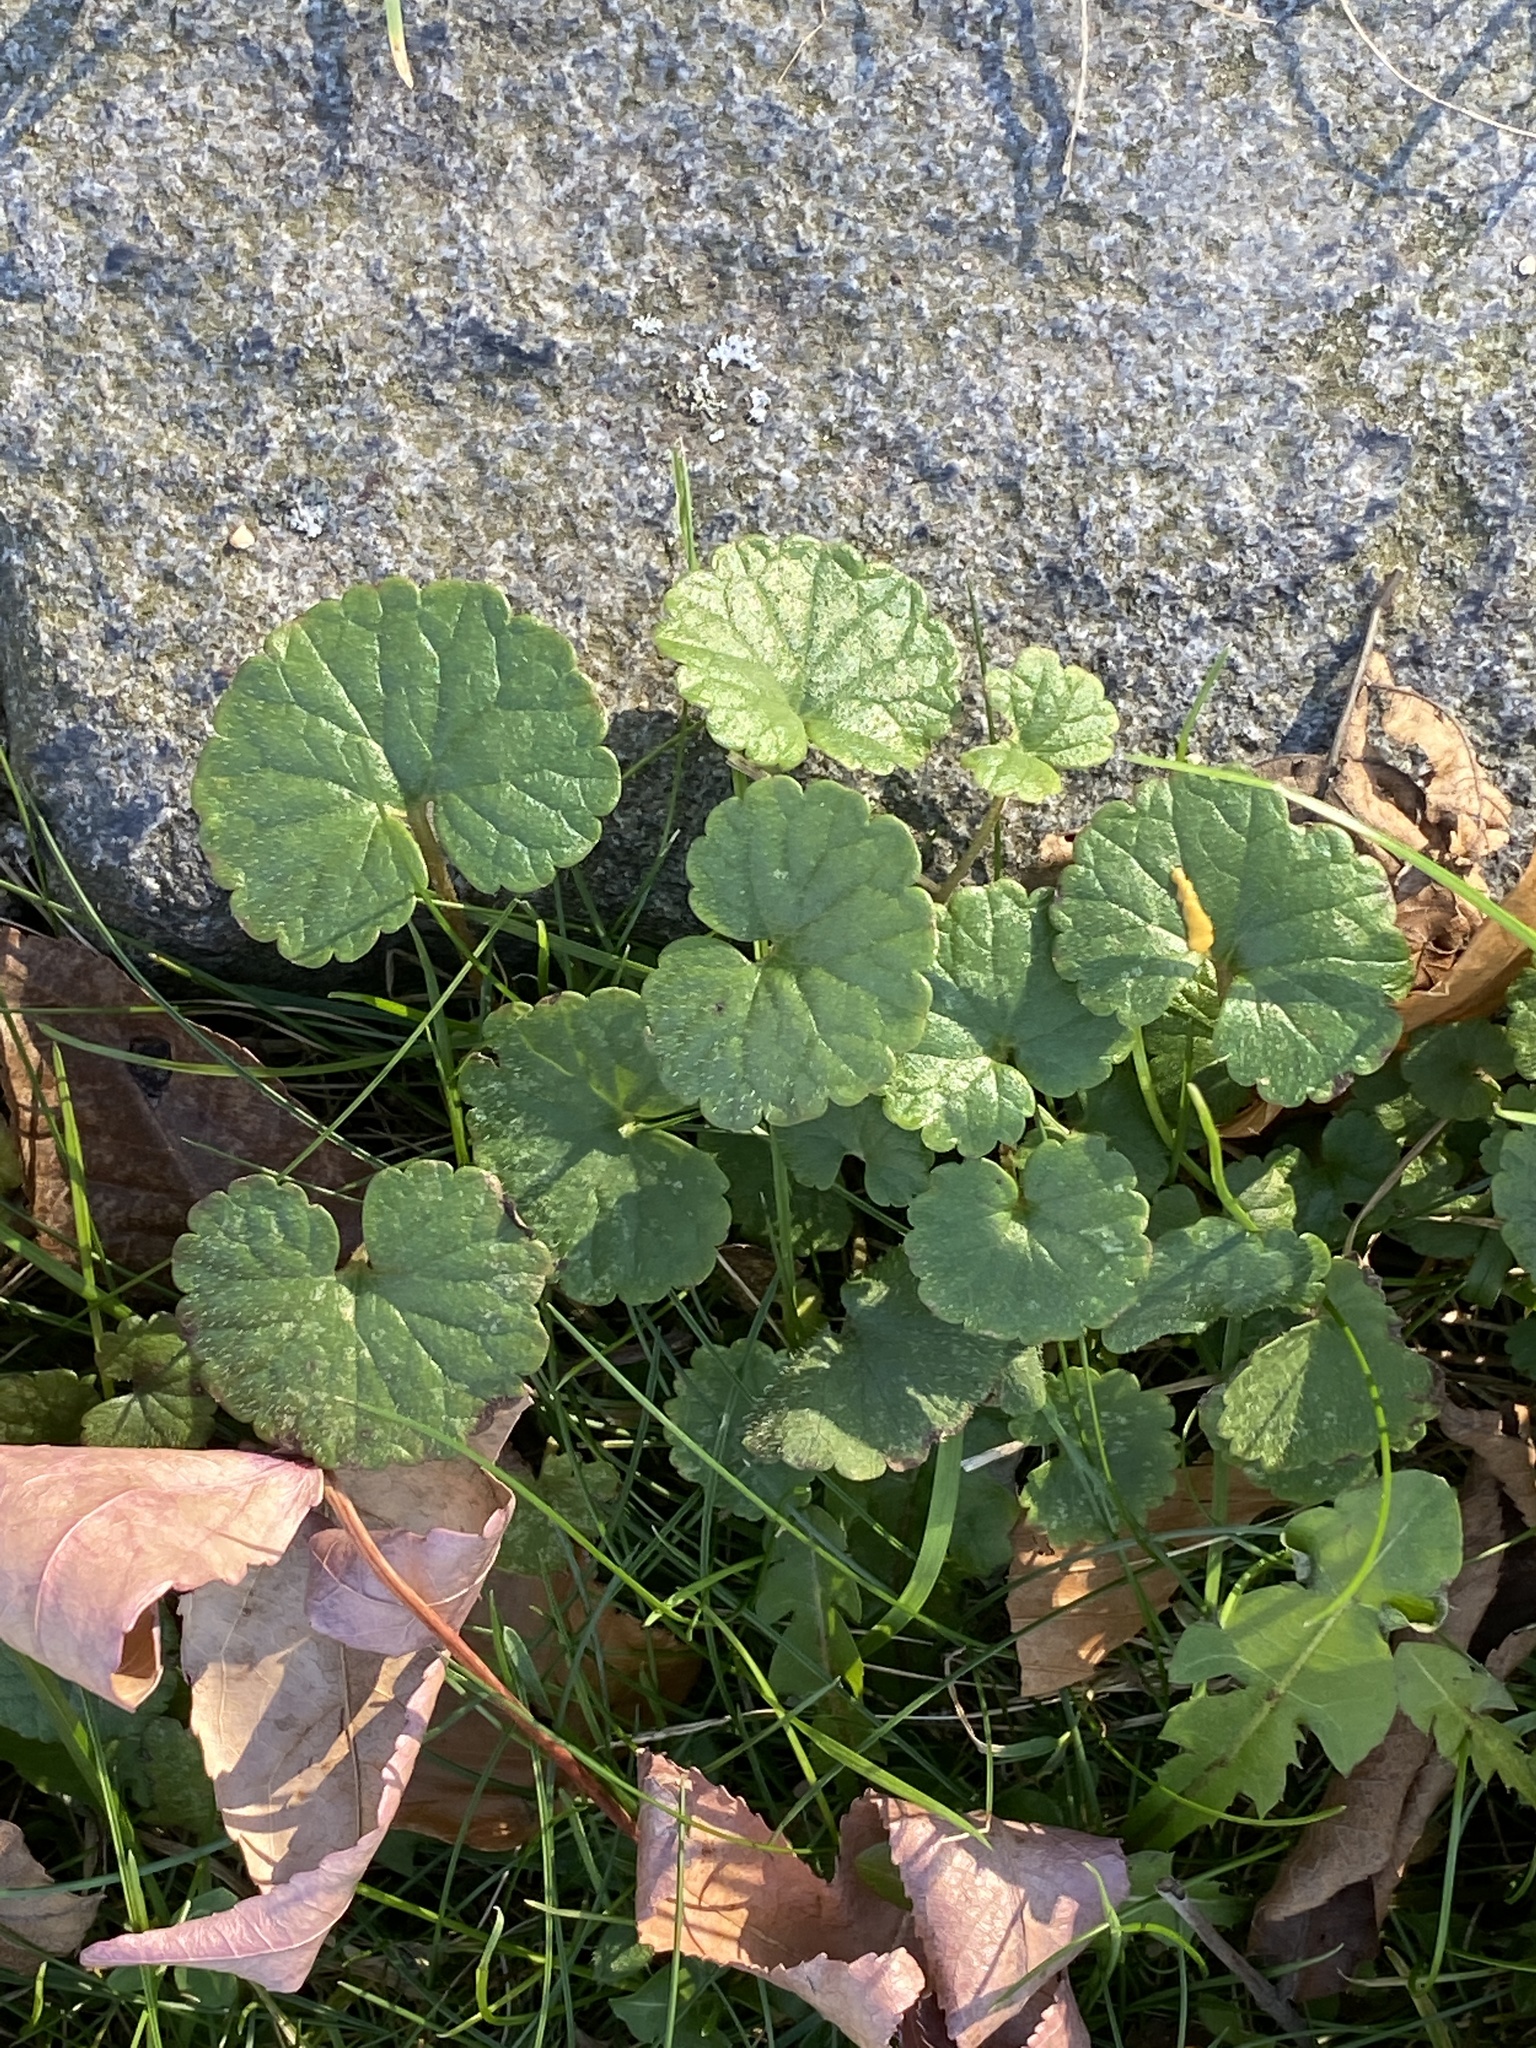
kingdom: Plantae
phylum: Tracheophyta
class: Magnoliopsida
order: Lamiales
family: Lamiaceae
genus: Glechoma
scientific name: Glechoma hederacea
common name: Ground ivy
